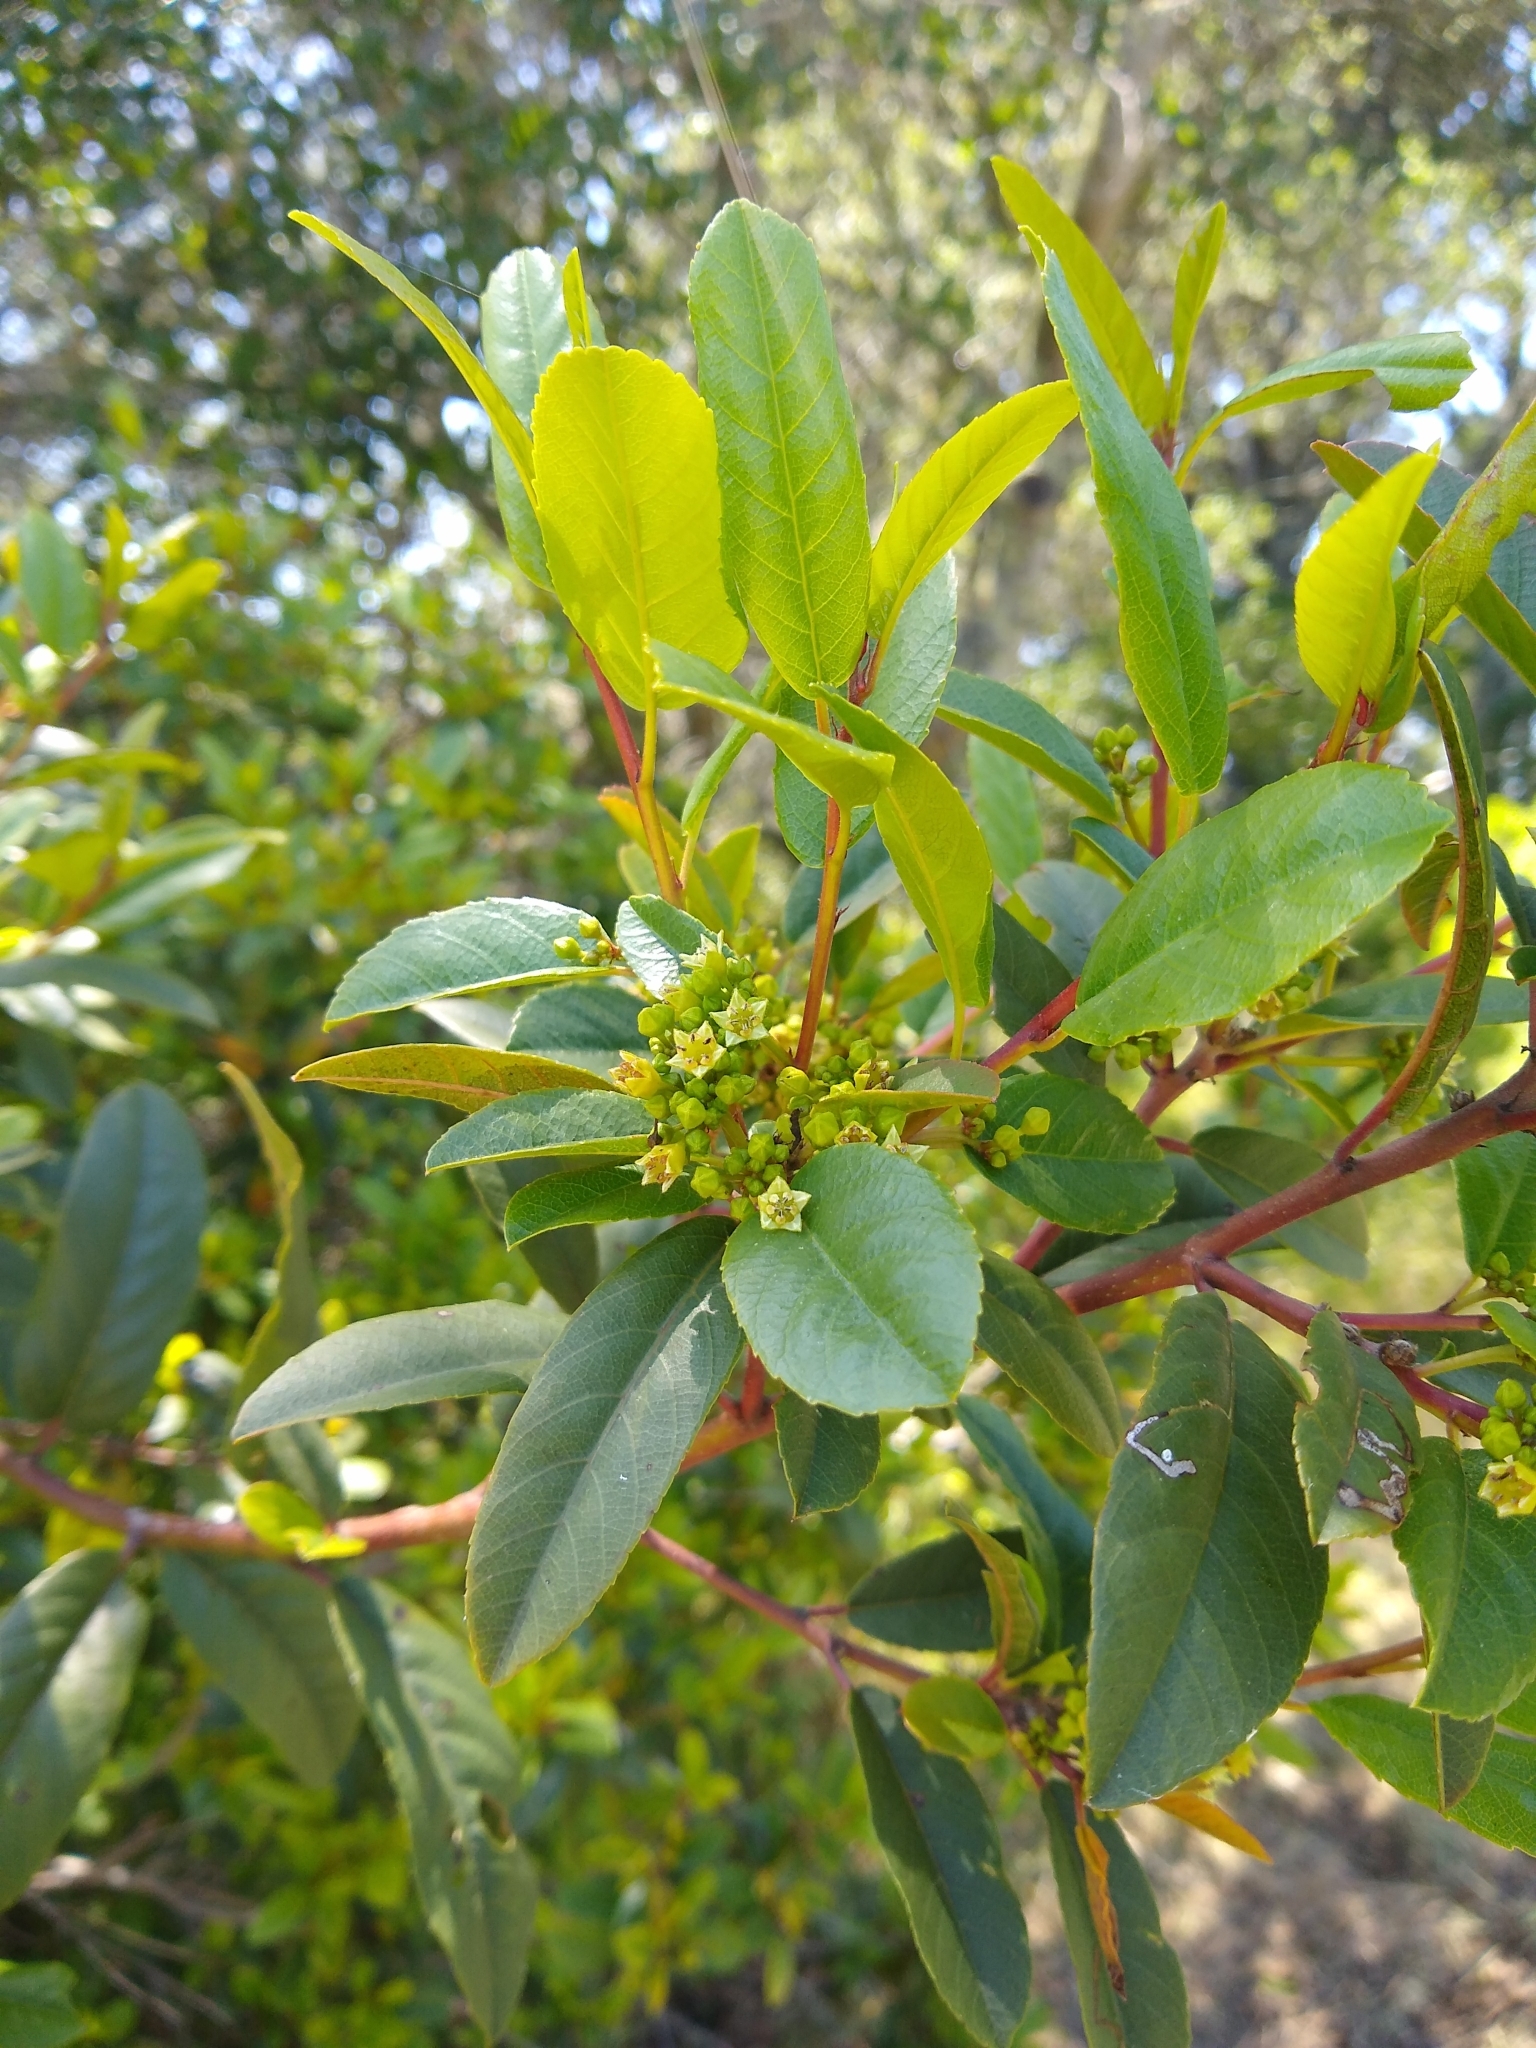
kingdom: Plantae
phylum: Tracheophyta
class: Magnoliopsida
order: Rosales
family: Rhamnaceae
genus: Frangula
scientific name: Frangula californica
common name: California buckthorn
